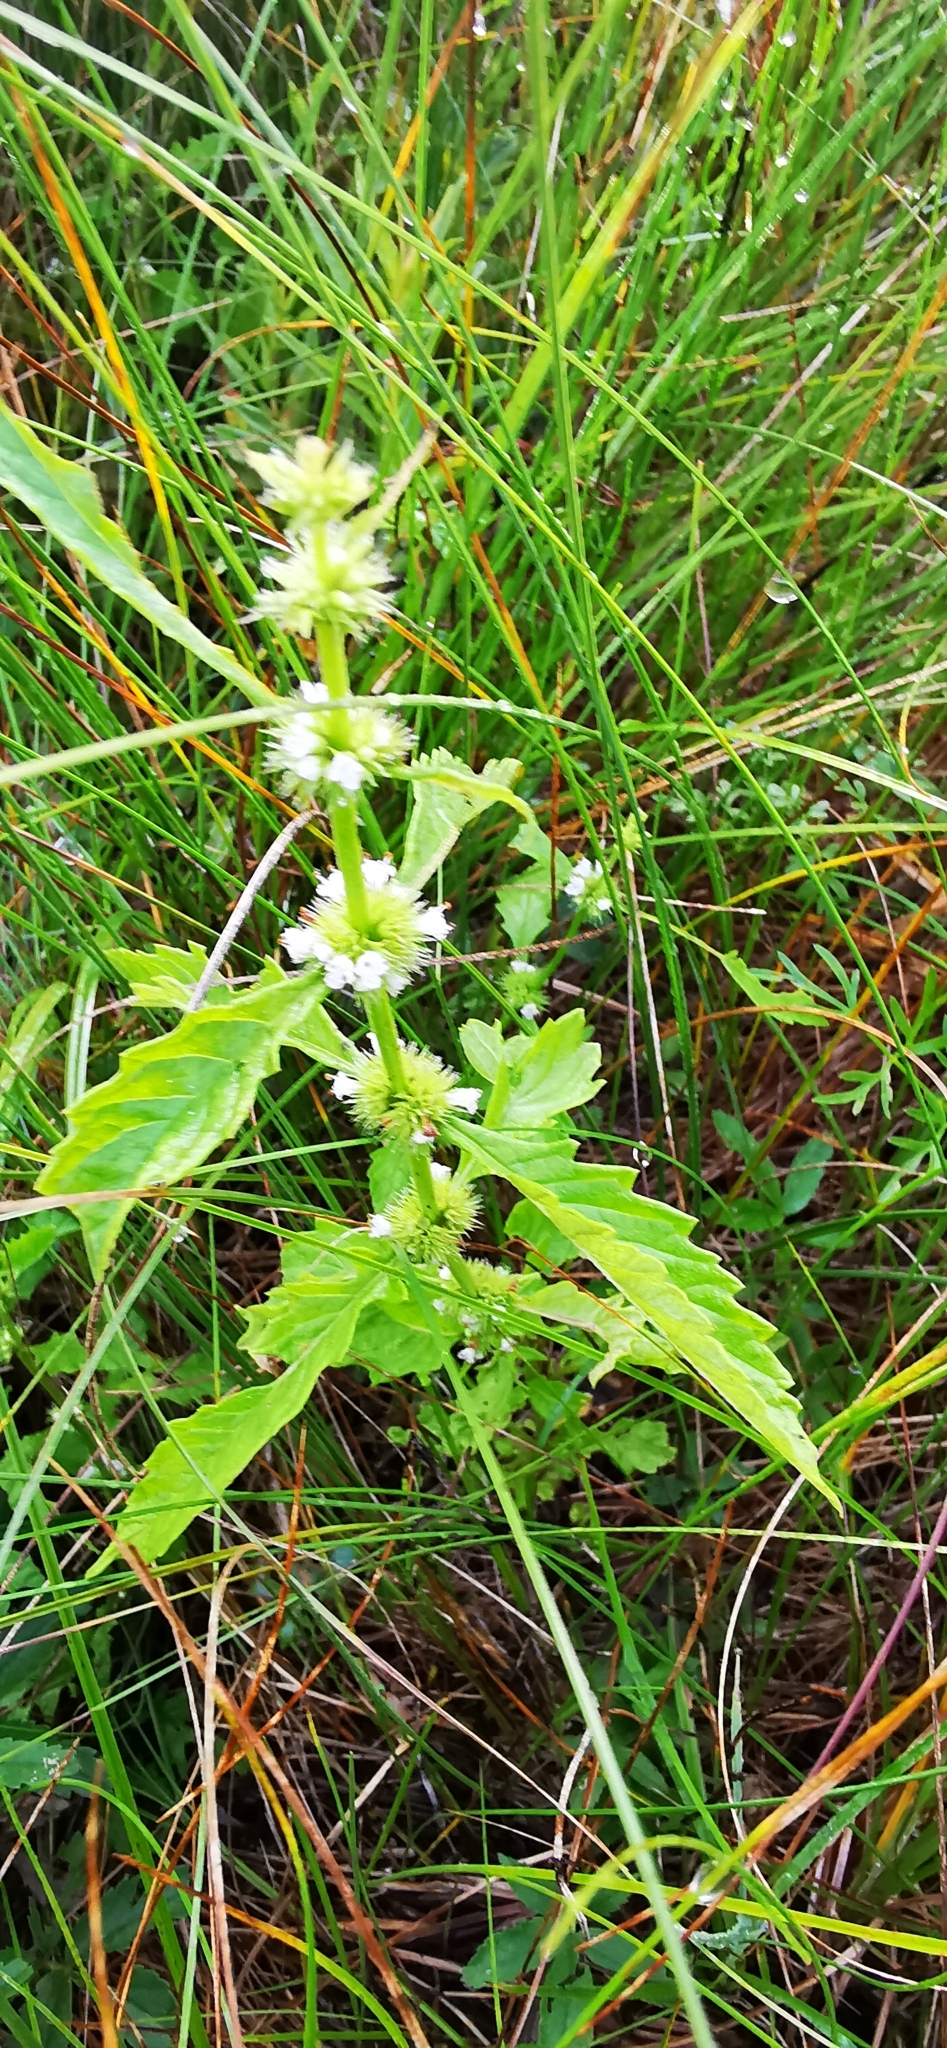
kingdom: Plantae
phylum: Tracheophyta
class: Magnoliopsida
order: Lamiales
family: Lamiaceae
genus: Lycopus
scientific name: Lycopus europaeus
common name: European bugleweed
